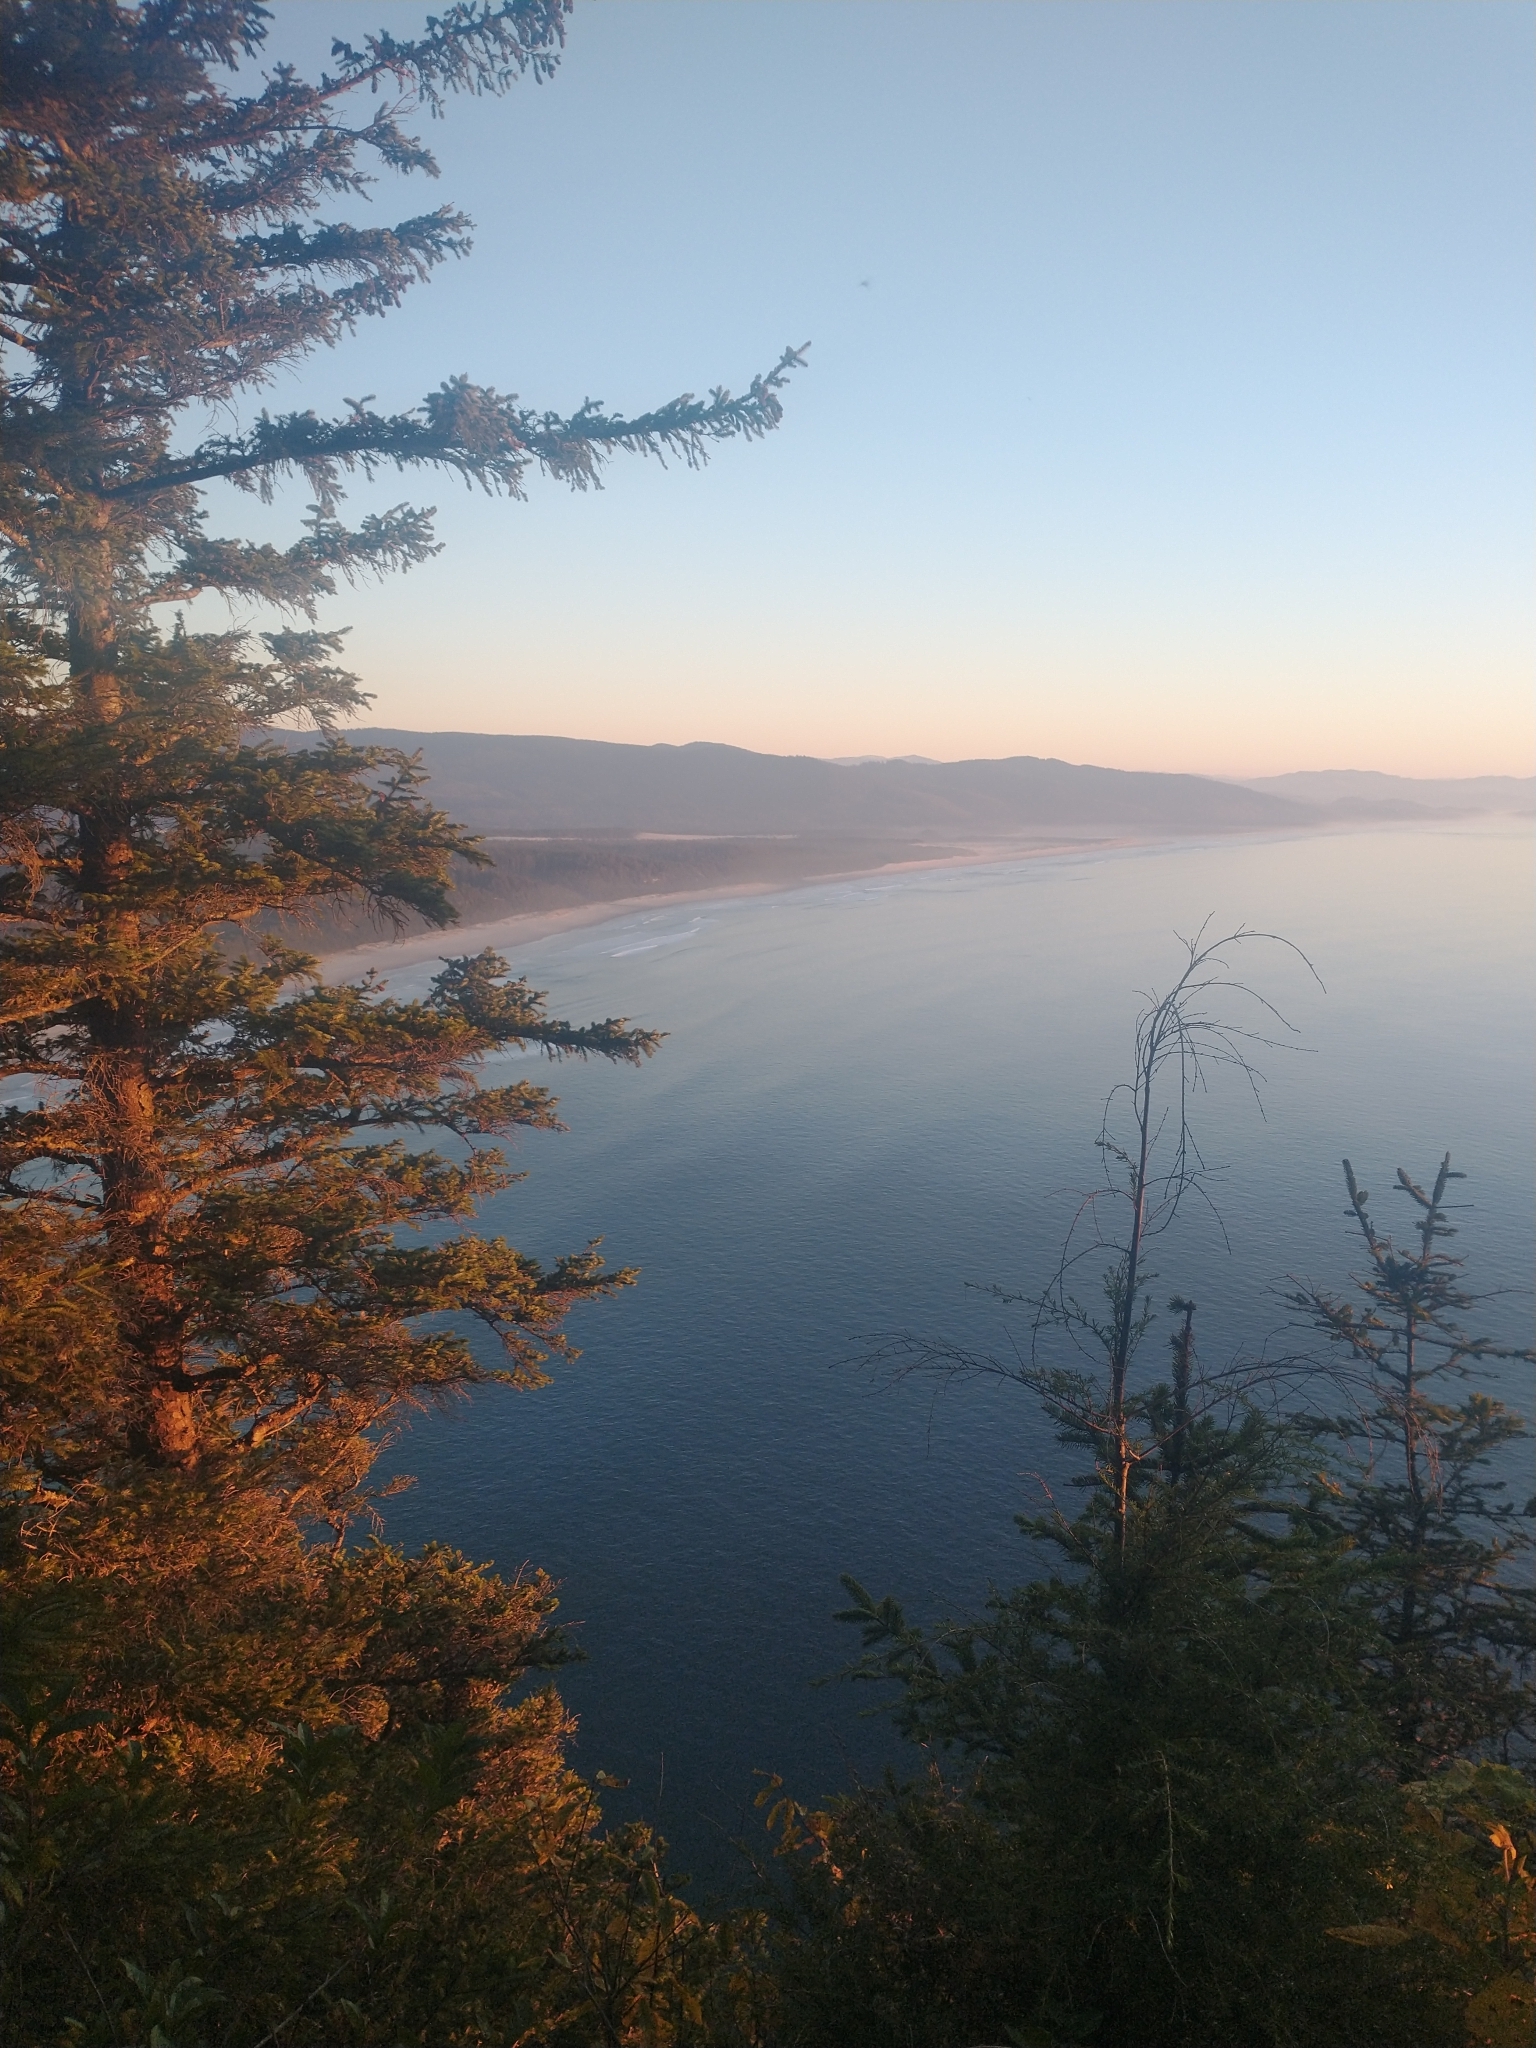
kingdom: Plantae
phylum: Tracheophyta
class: Pinopsida
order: Pinales
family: Pinaceae
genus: Picea
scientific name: Picea sitchensis
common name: Sitka spruce
